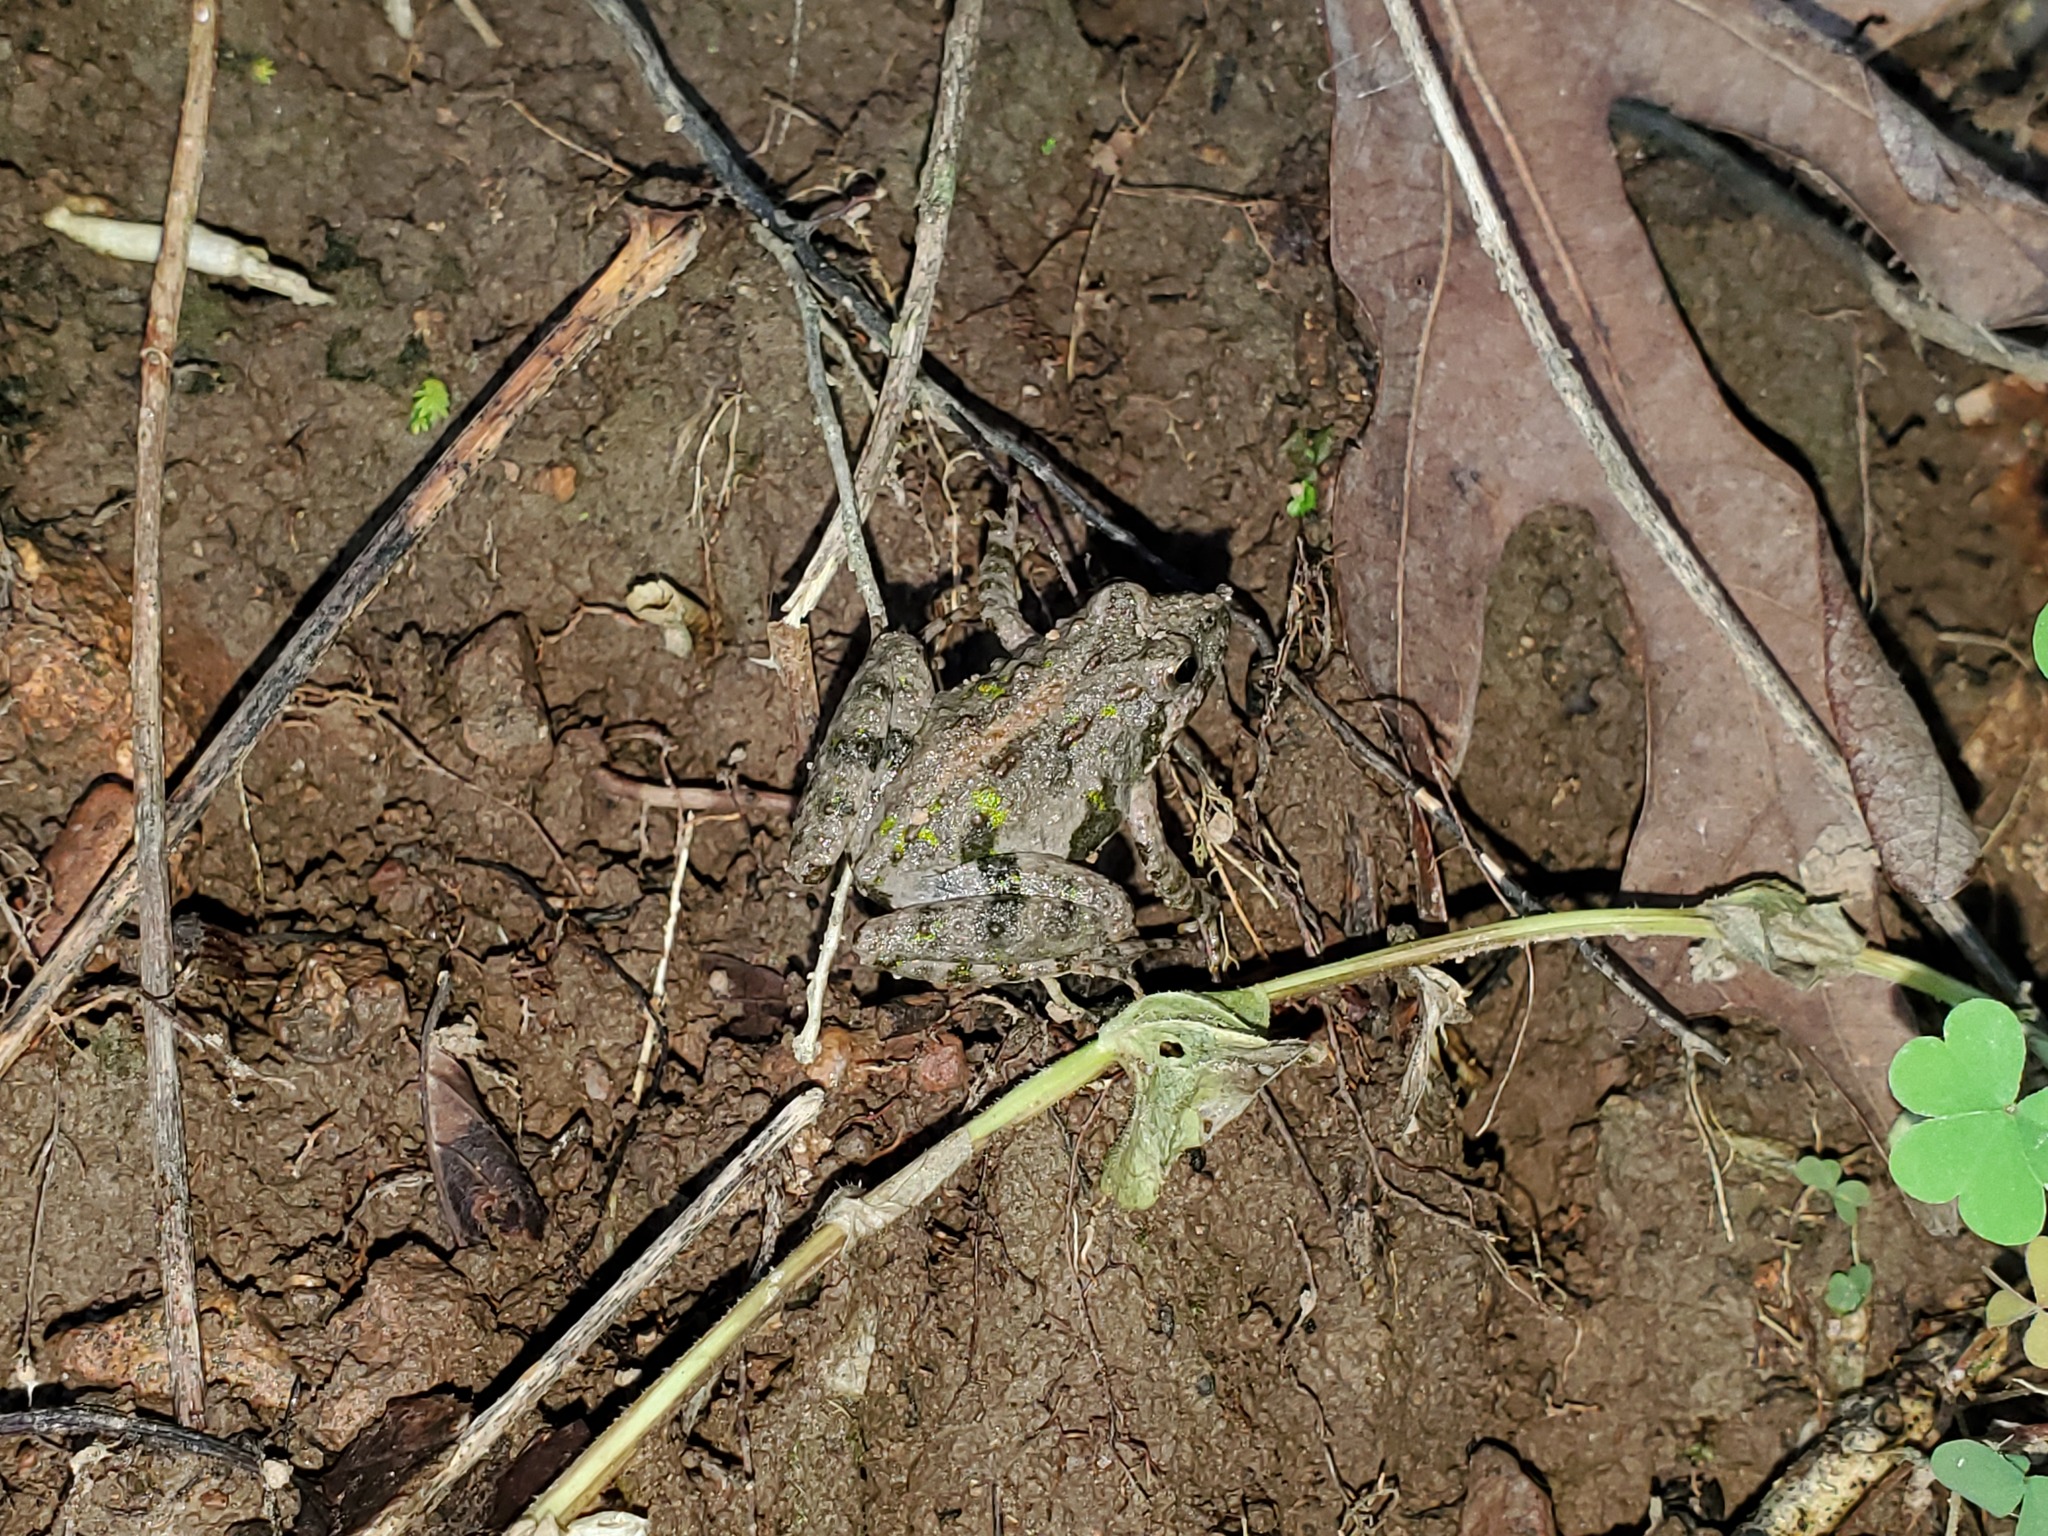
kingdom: Animalia
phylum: Chordata
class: Amphibia
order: Anura
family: Hylidae
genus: Acris
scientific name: Acris crepitans
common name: Northern cricket frog
